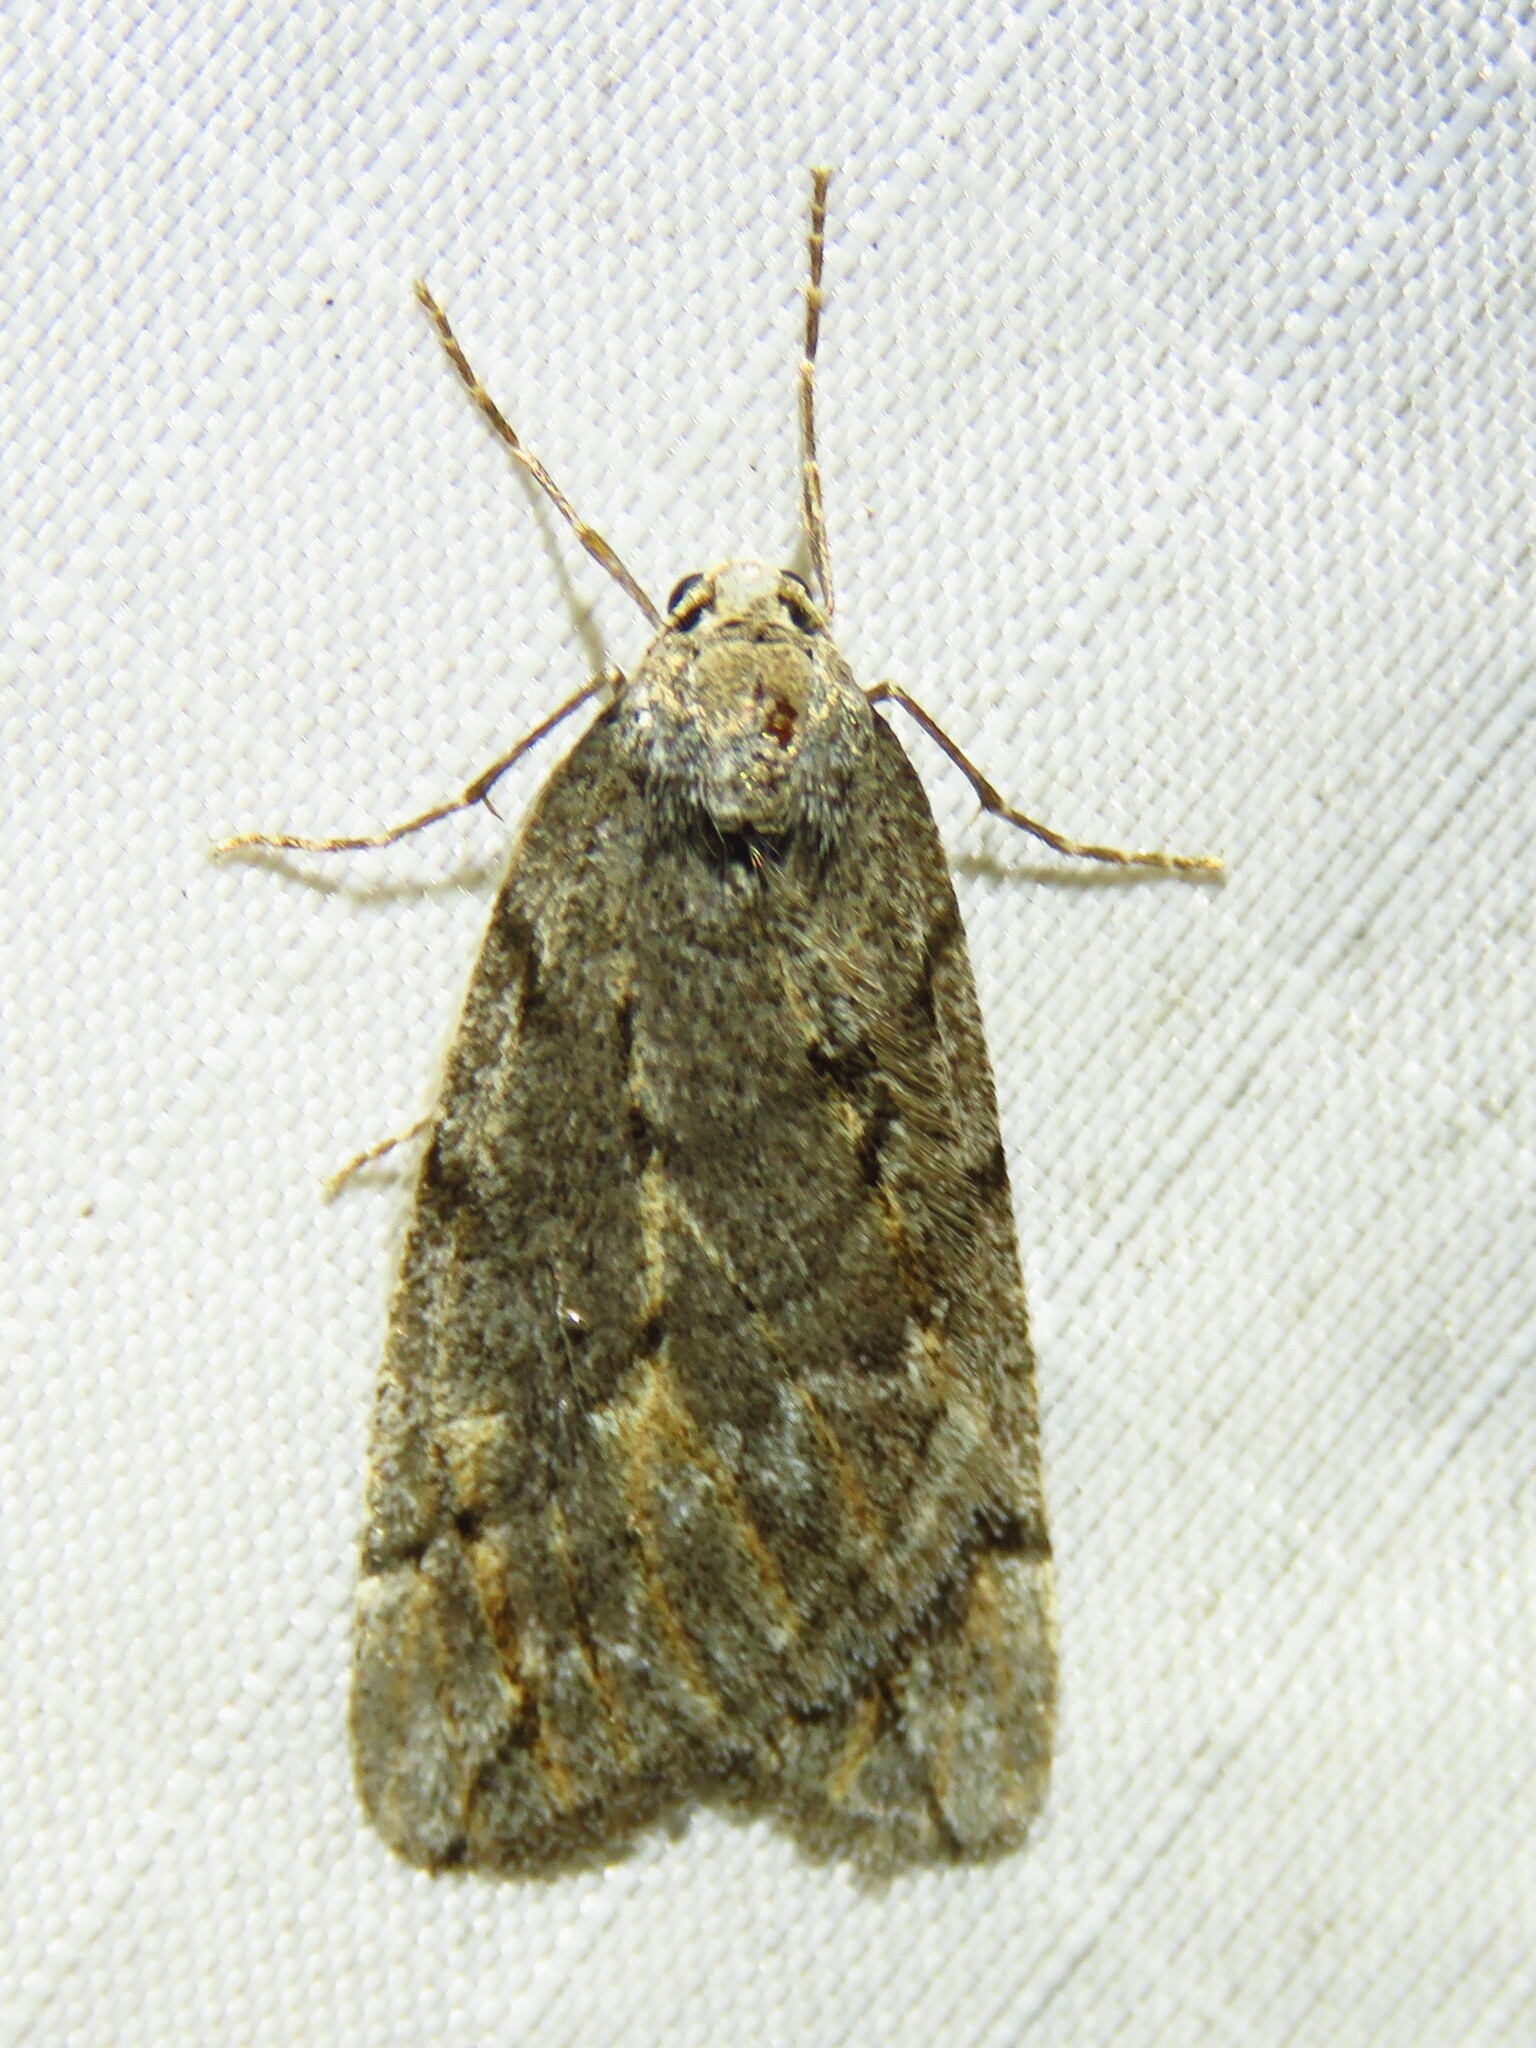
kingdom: Animalia
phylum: Arthropoda
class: Insecta
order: Lepidoptera
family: Geometridae
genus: Paleacrita
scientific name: Paleacrita vernata
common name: Spring cankerworm
